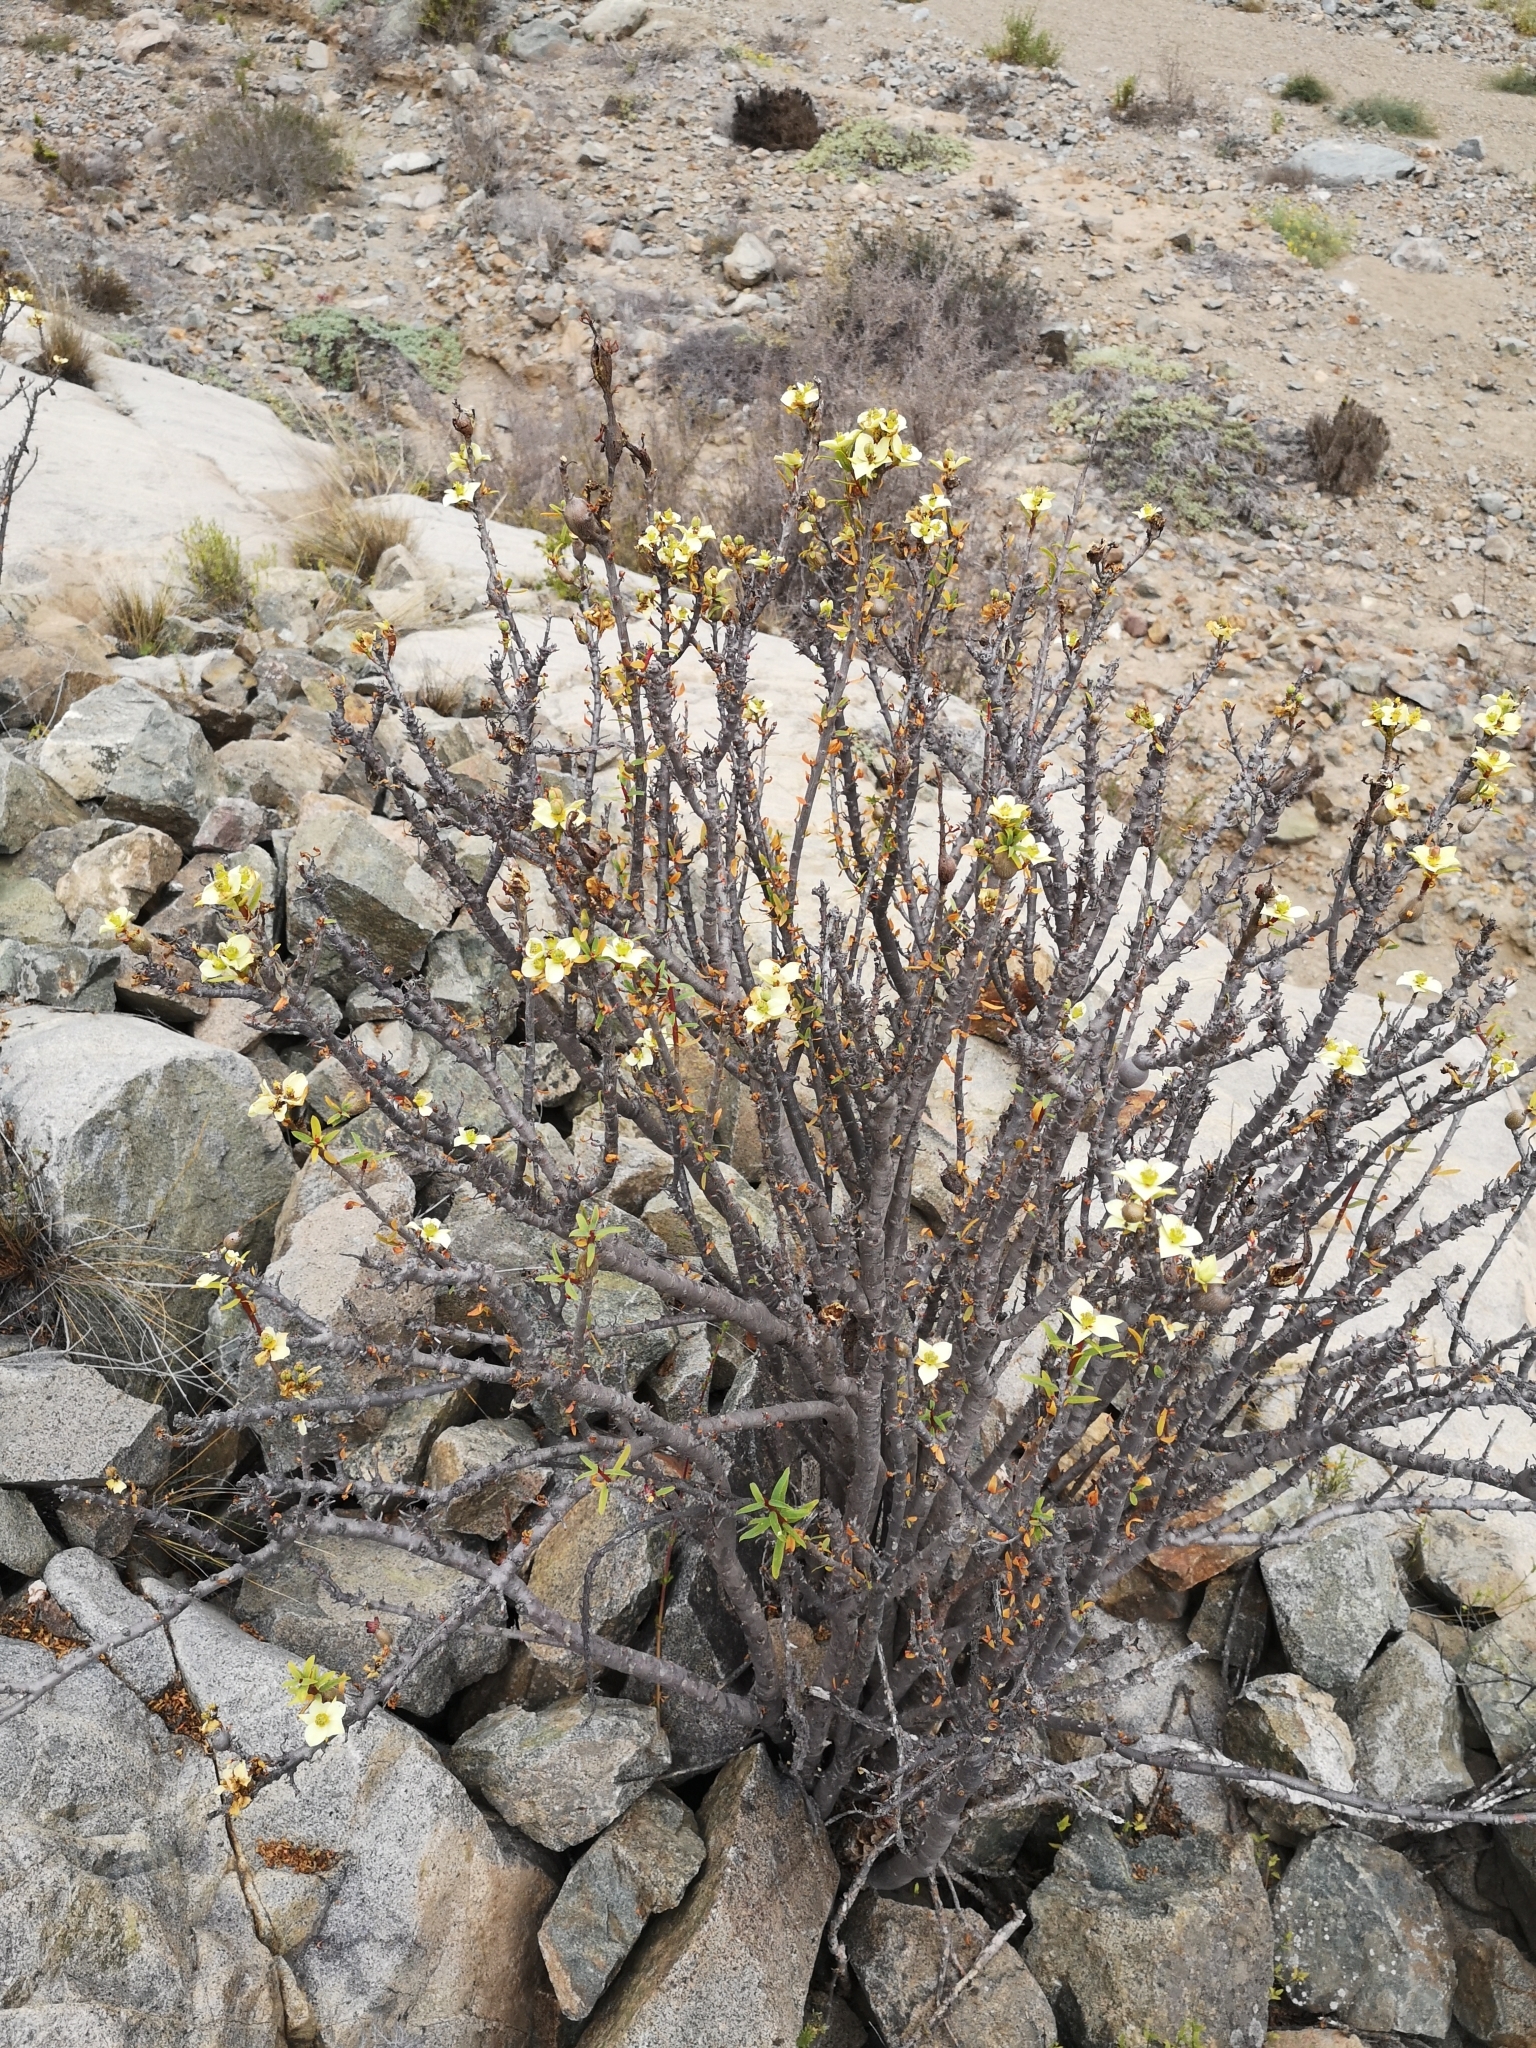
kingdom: Plantae
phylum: Tracheophyta
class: Magnoliopsida
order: Malpighiales
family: Euphorbiaceae
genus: Euphorbia
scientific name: Euphorbia lactiflua
